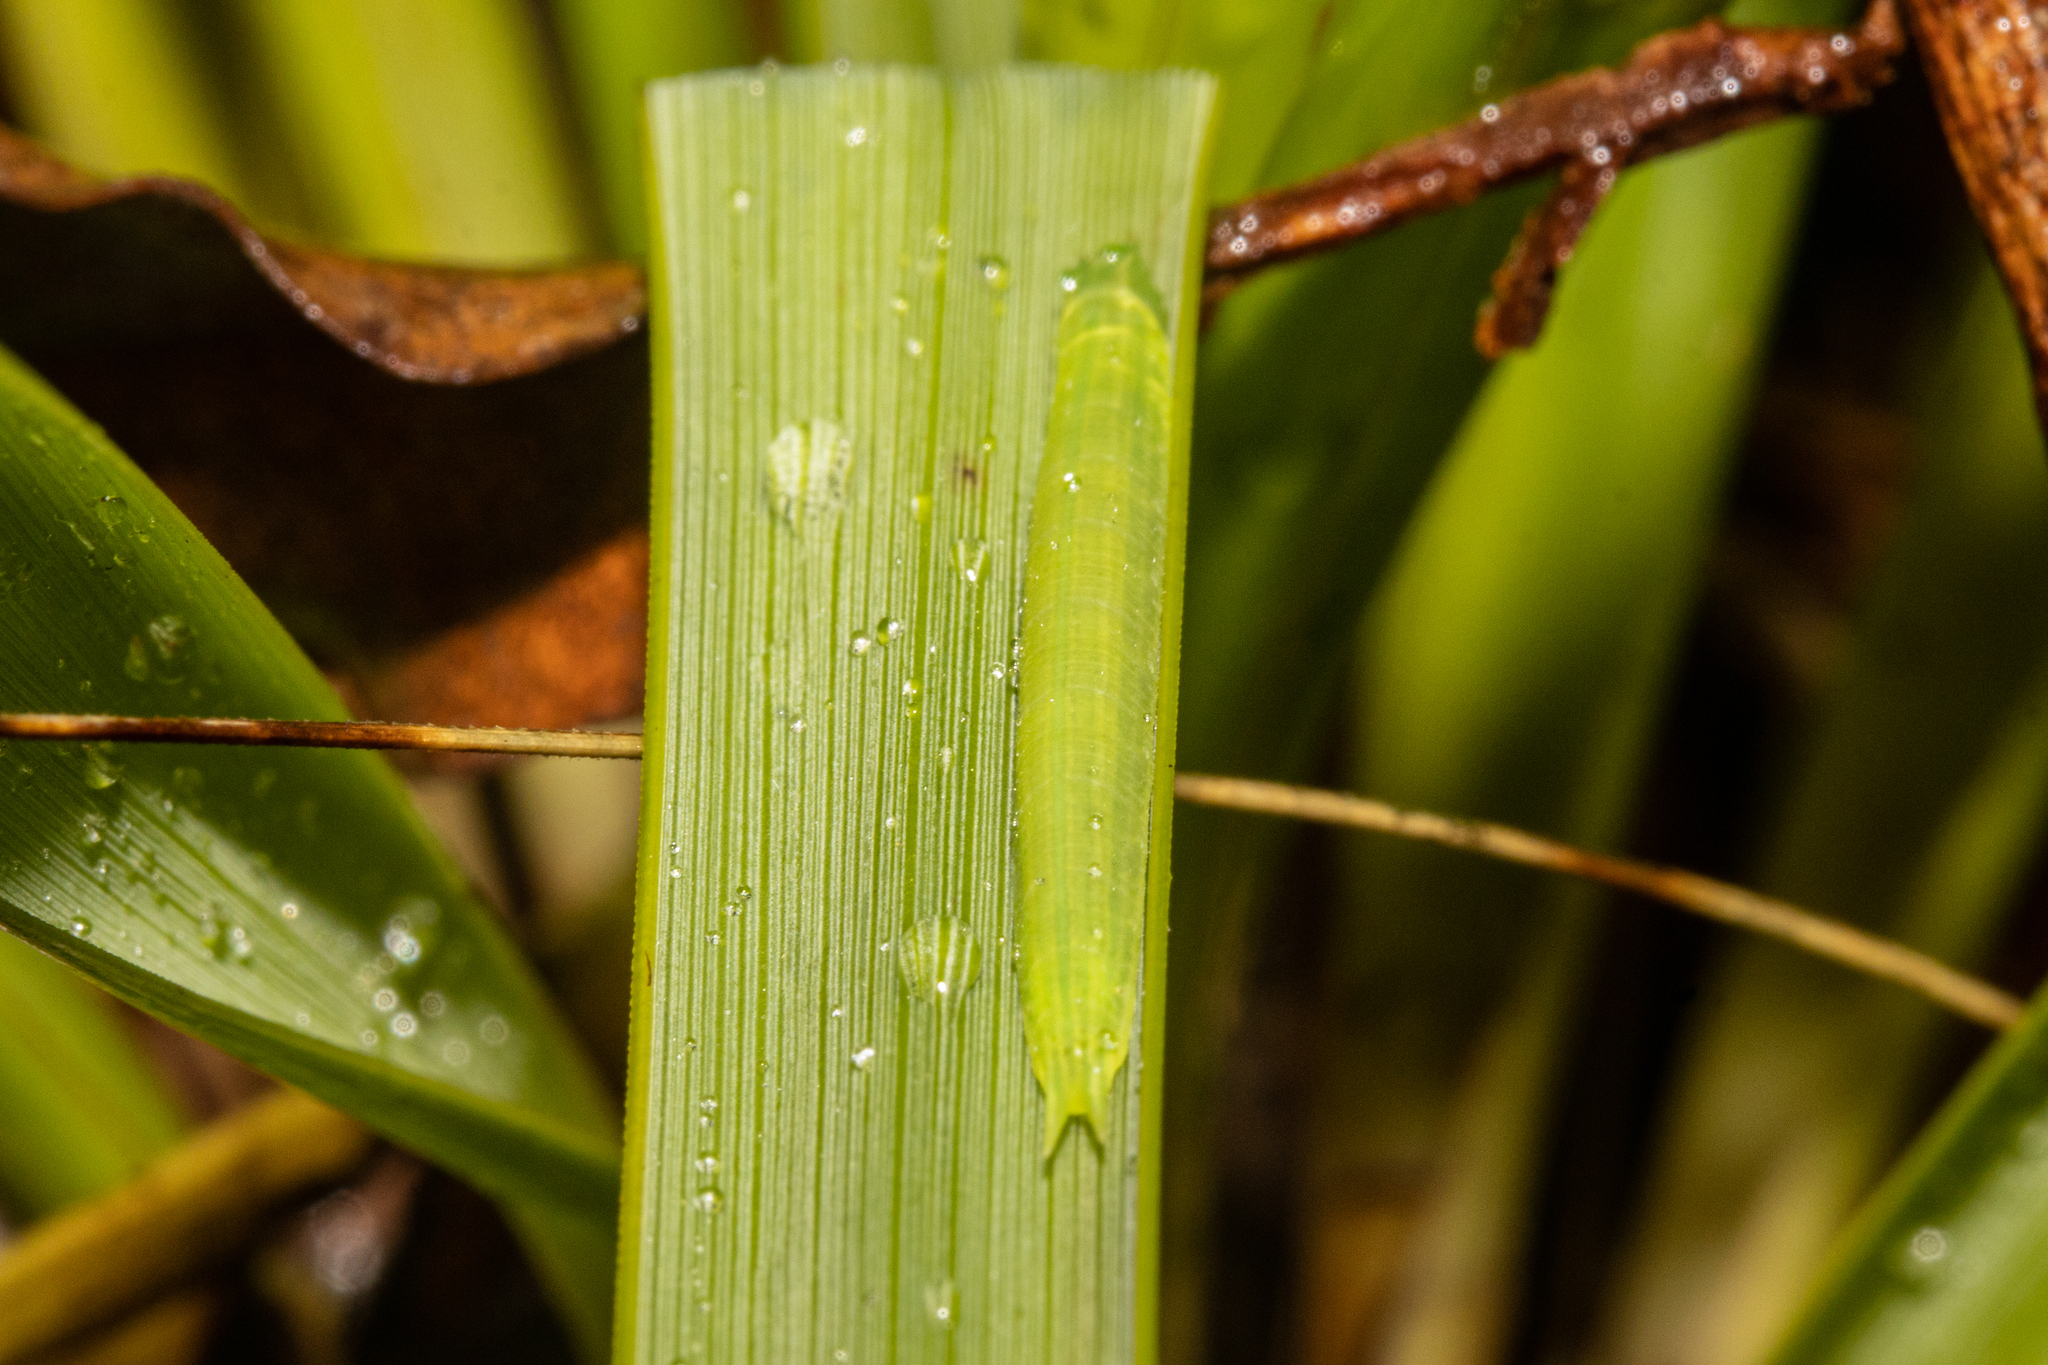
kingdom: Animalia
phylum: Arthropoda
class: Insecta
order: Lepidoptera
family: Nymphalidae
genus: Dodonidia
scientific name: Dodonidia helmsii
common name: Helm's butterfly
